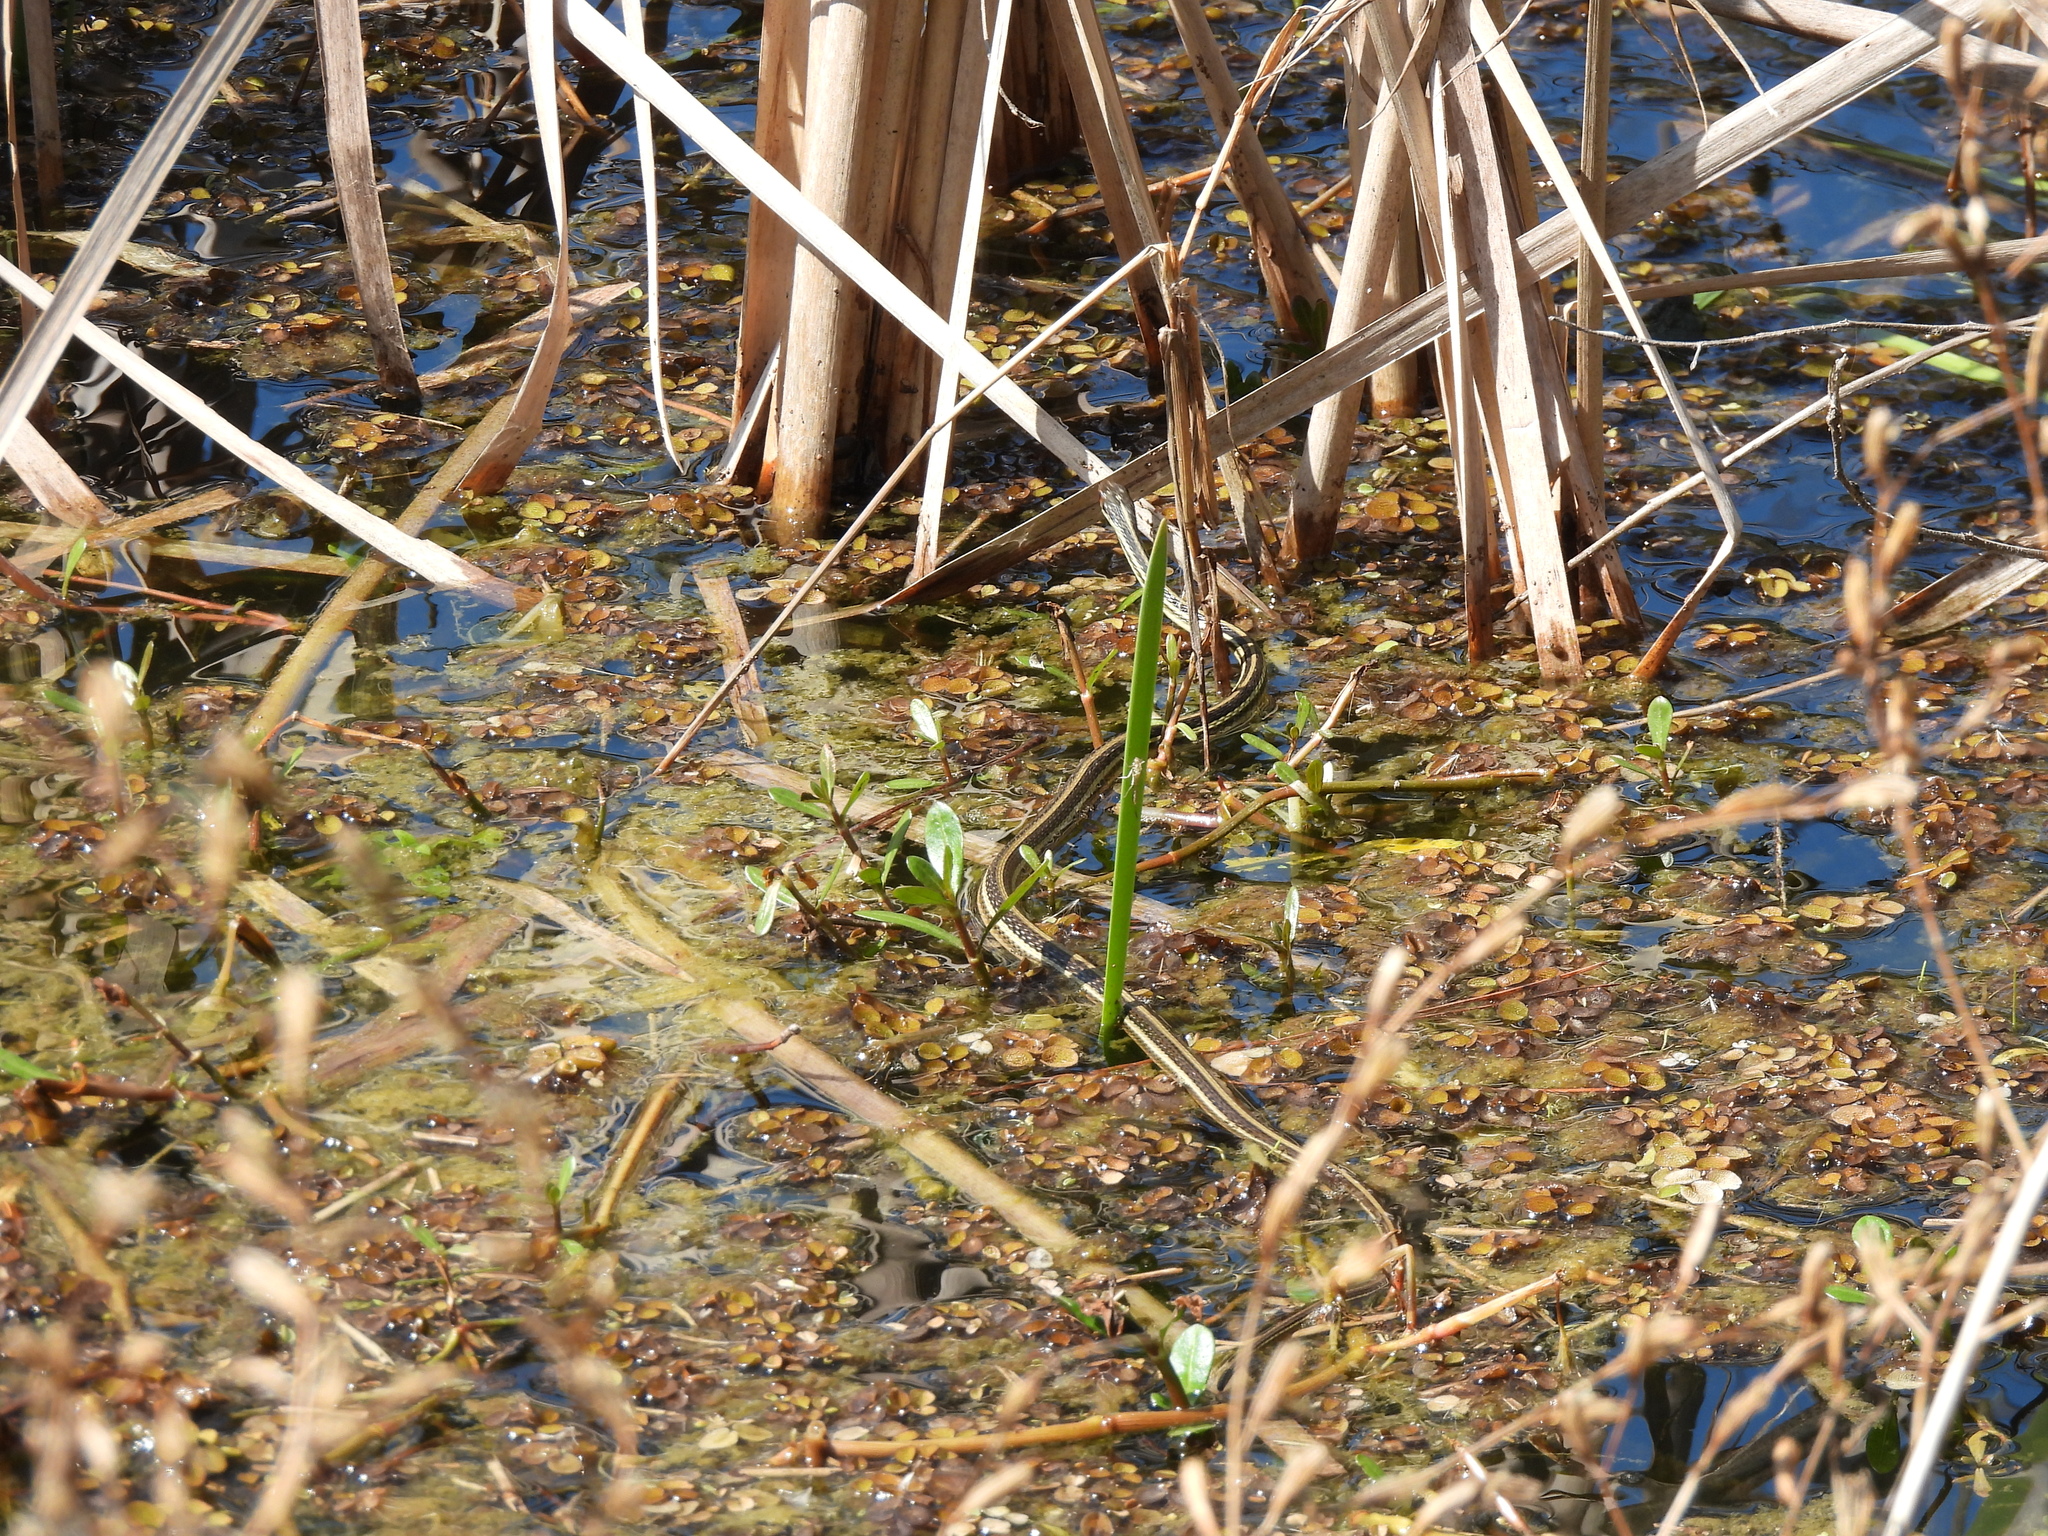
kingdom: Animalia
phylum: Chordata
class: Squamata
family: Colubridae
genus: Thamnophis
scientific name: Thamnophis proximus
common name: Western ribbon snake
